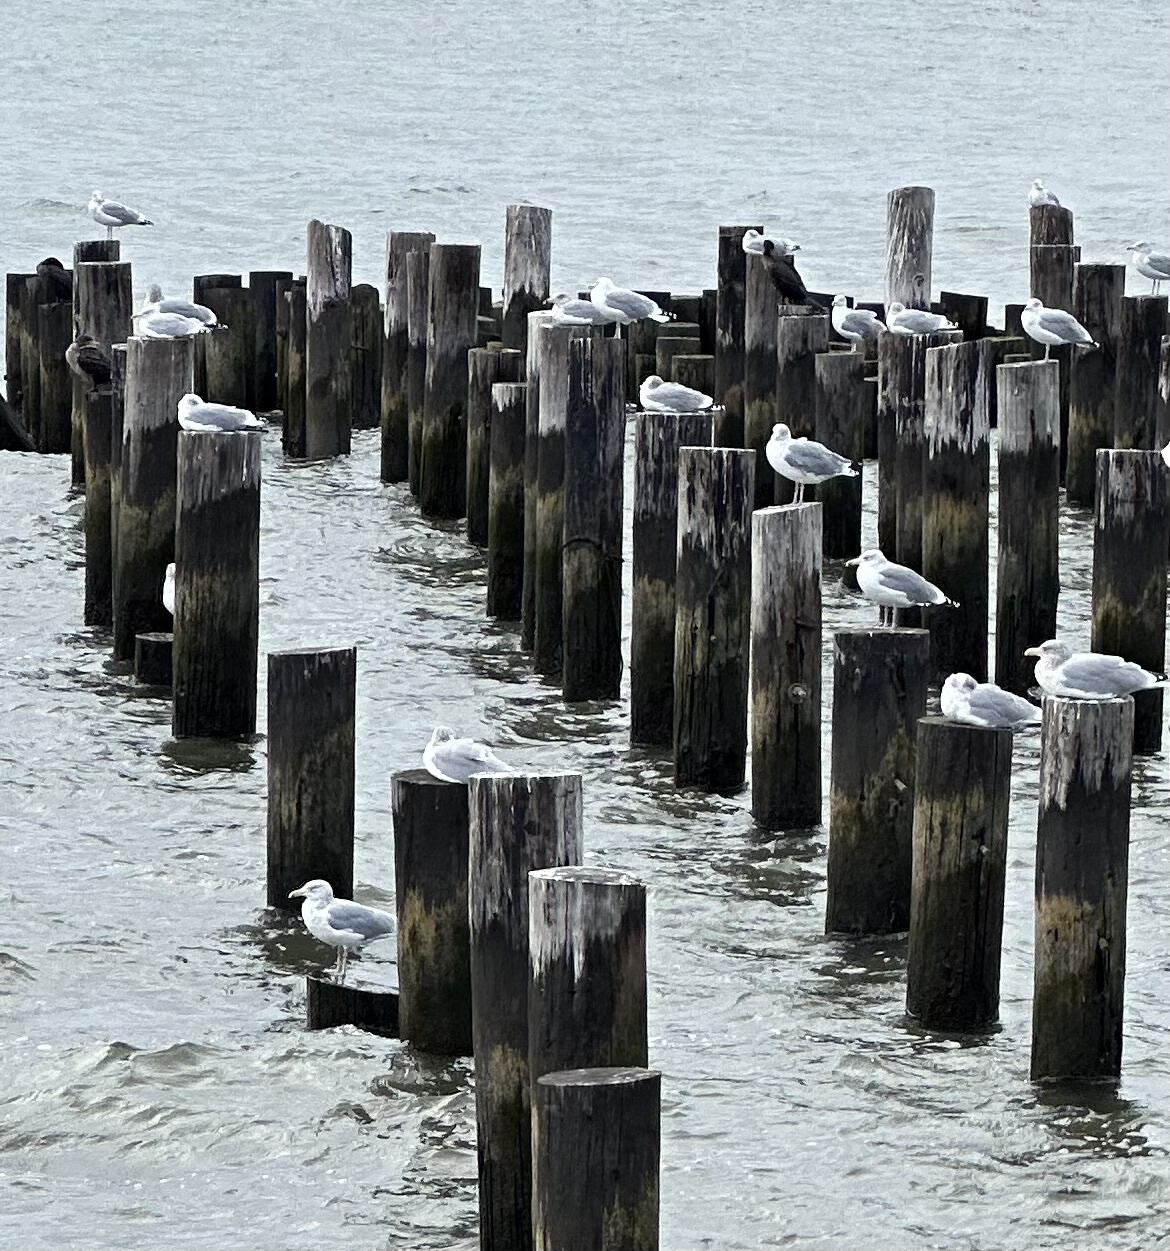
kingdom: Animalia
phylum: Chordata
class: Aves
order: Charadriiformes
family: Laridae
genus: Larus
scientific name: Larus argentatus
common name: Herring gull
